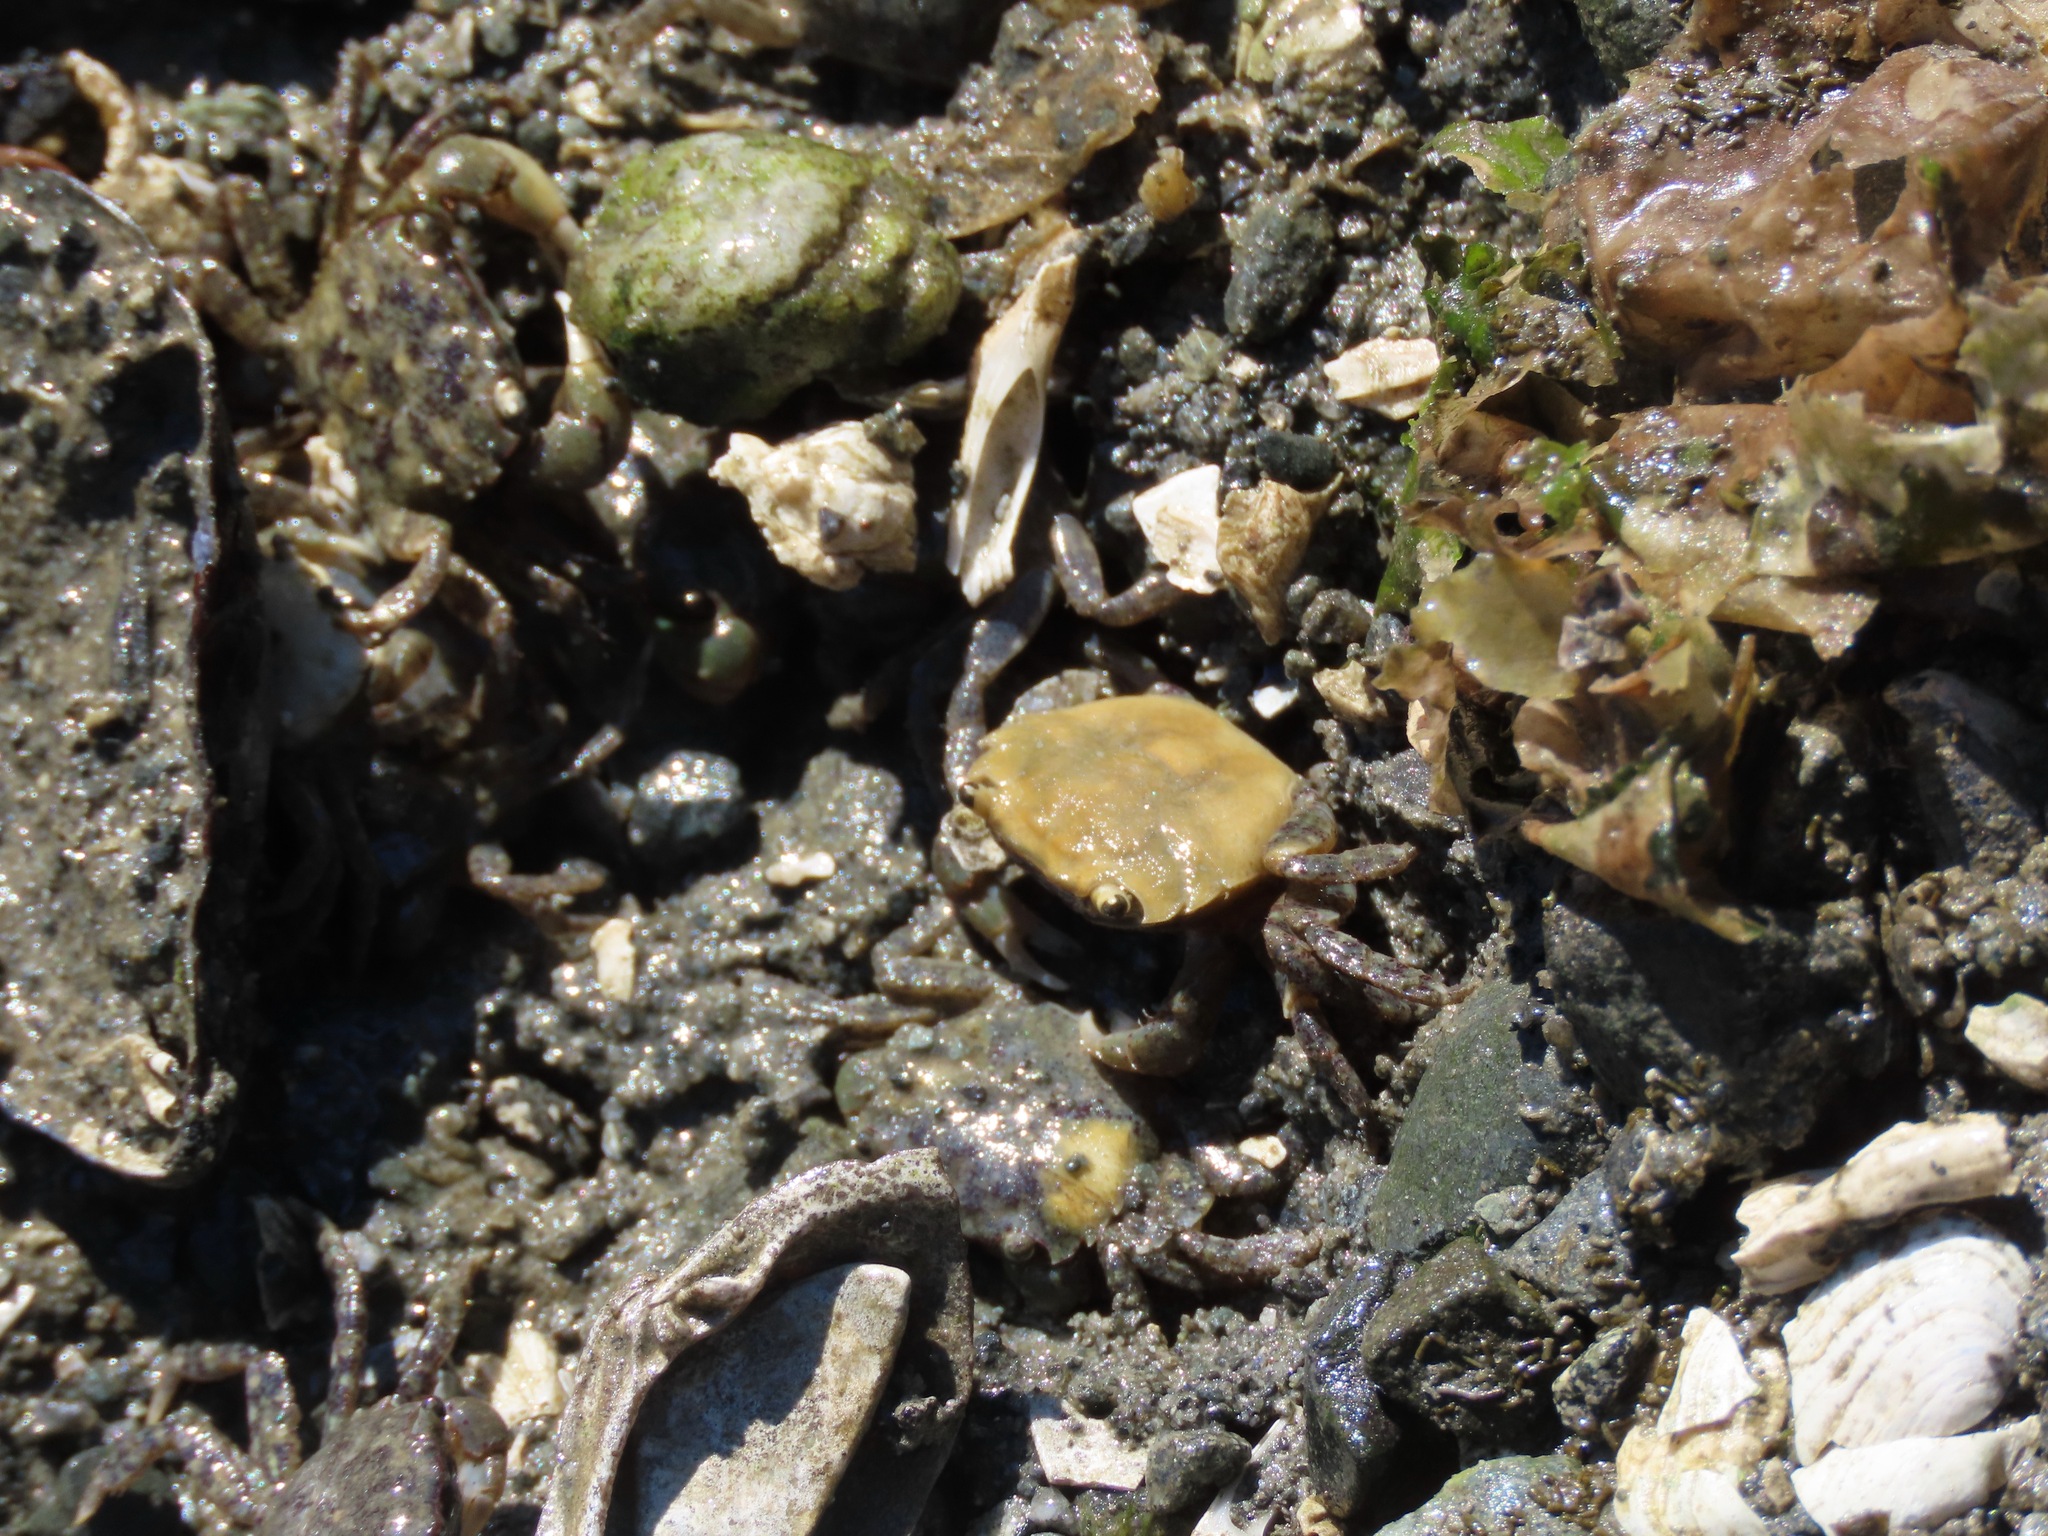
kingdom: Animalia
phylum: Arthropoda
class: Malacostraca
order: Decapoda
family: Varunidae
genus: Hemigrapsus
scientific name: Hemigrapsus oregonensis
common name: Yellow shore crab
